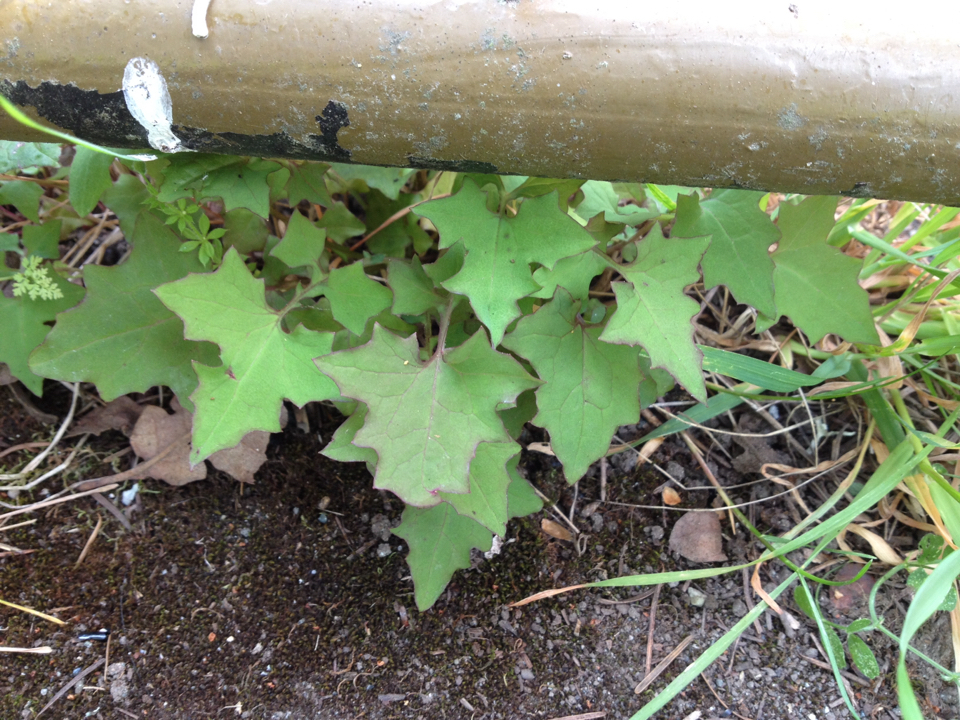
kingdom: Plantae
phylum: Tracheophyta
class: Magnoliopsida
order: Asterales
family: Asteraceae
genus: Mycelis
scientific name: Mycelis muralis
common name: Wall lettuce
